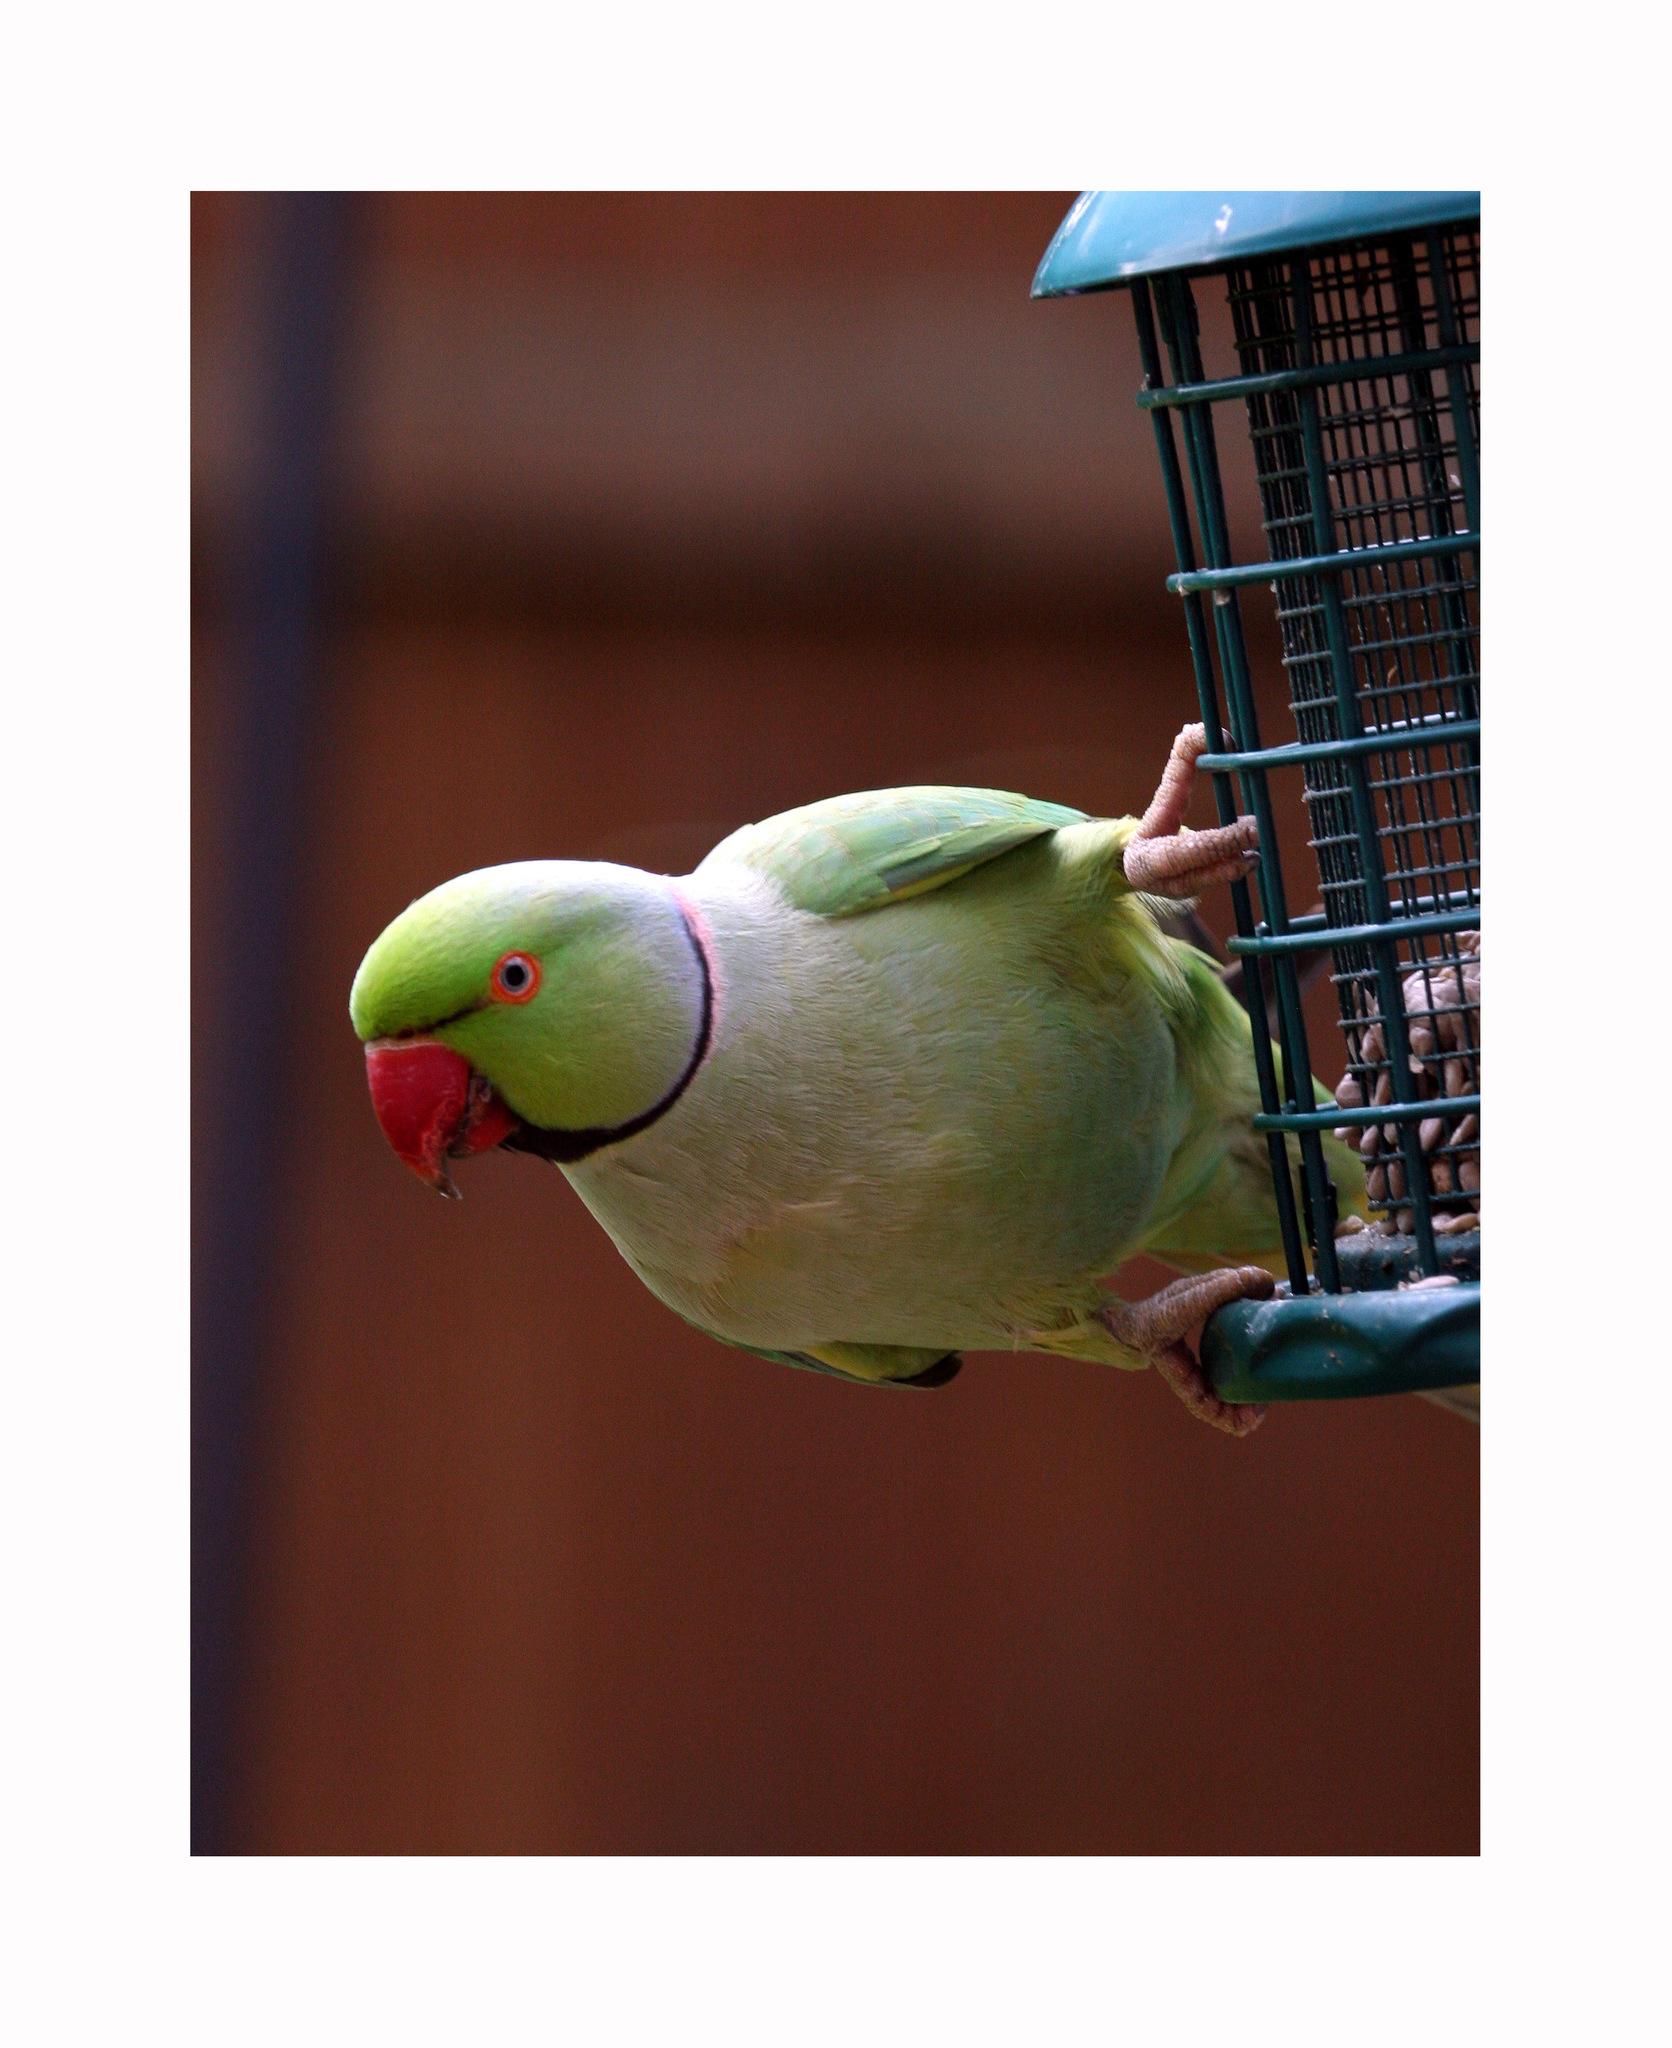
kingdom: Animalia
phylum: Chordata
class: Aves
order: Psittaciformes
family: Psittacidae
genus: Psittacula
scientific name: Psittacula krameri
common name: Rose-ringed parakeet
